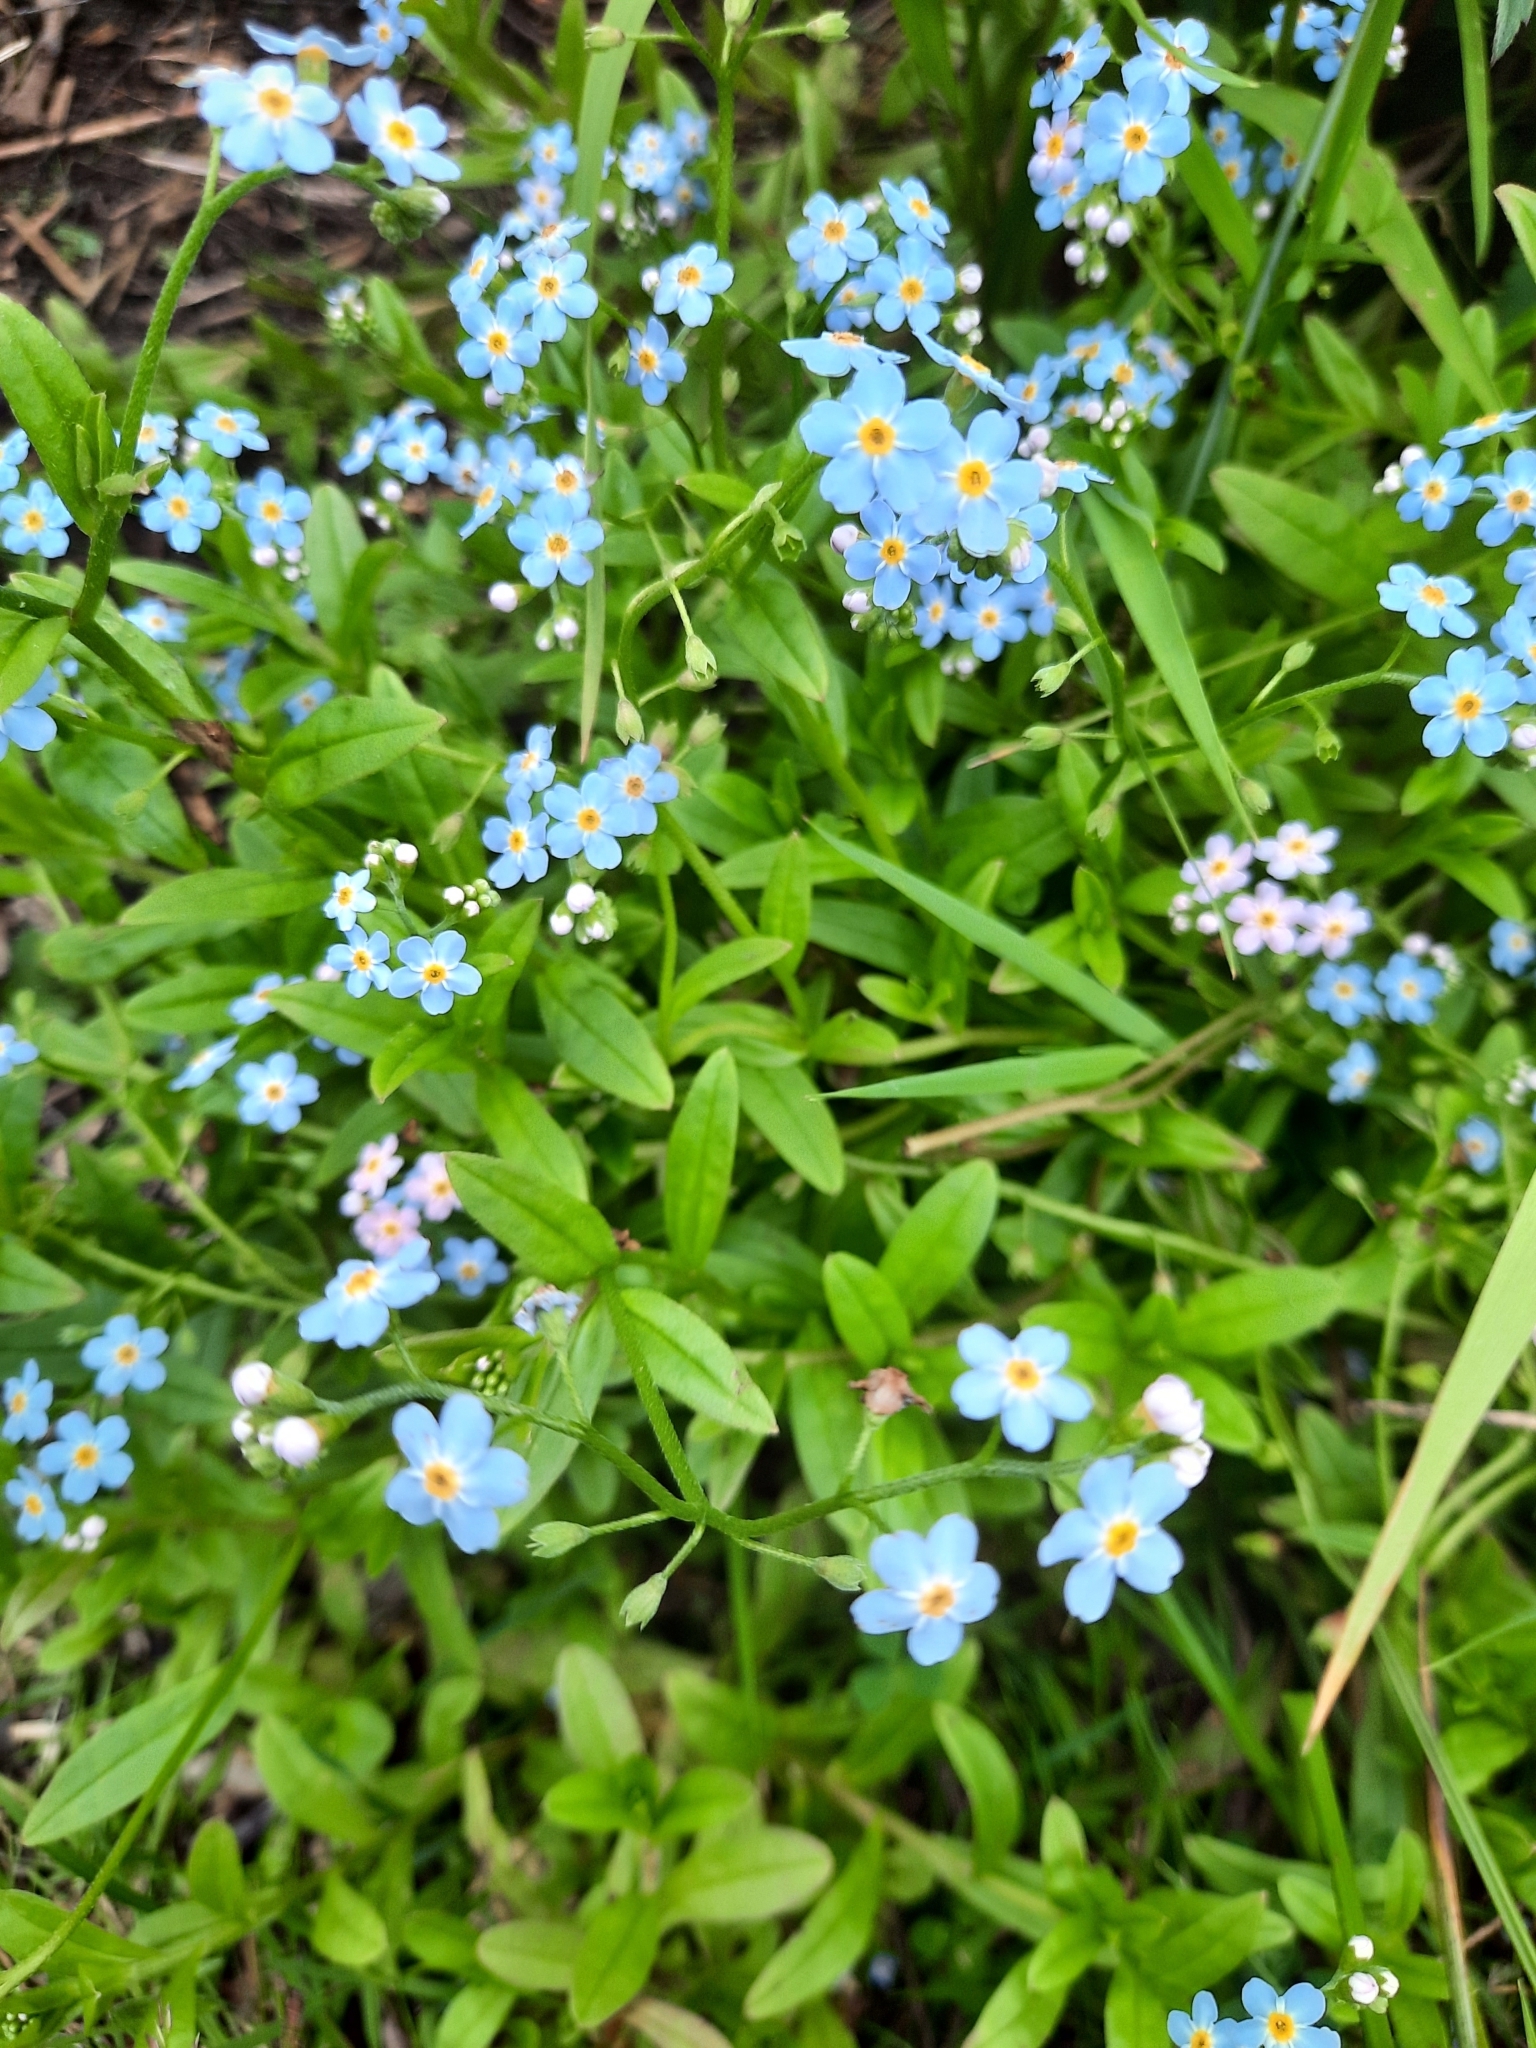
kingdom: Plantae
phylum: Tracheophyta
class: Magnoliopsida
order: Boraginales
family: Boraginaceae
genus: Myosotis
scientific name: Myosotis scorpioides
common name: Water forget-me-not
